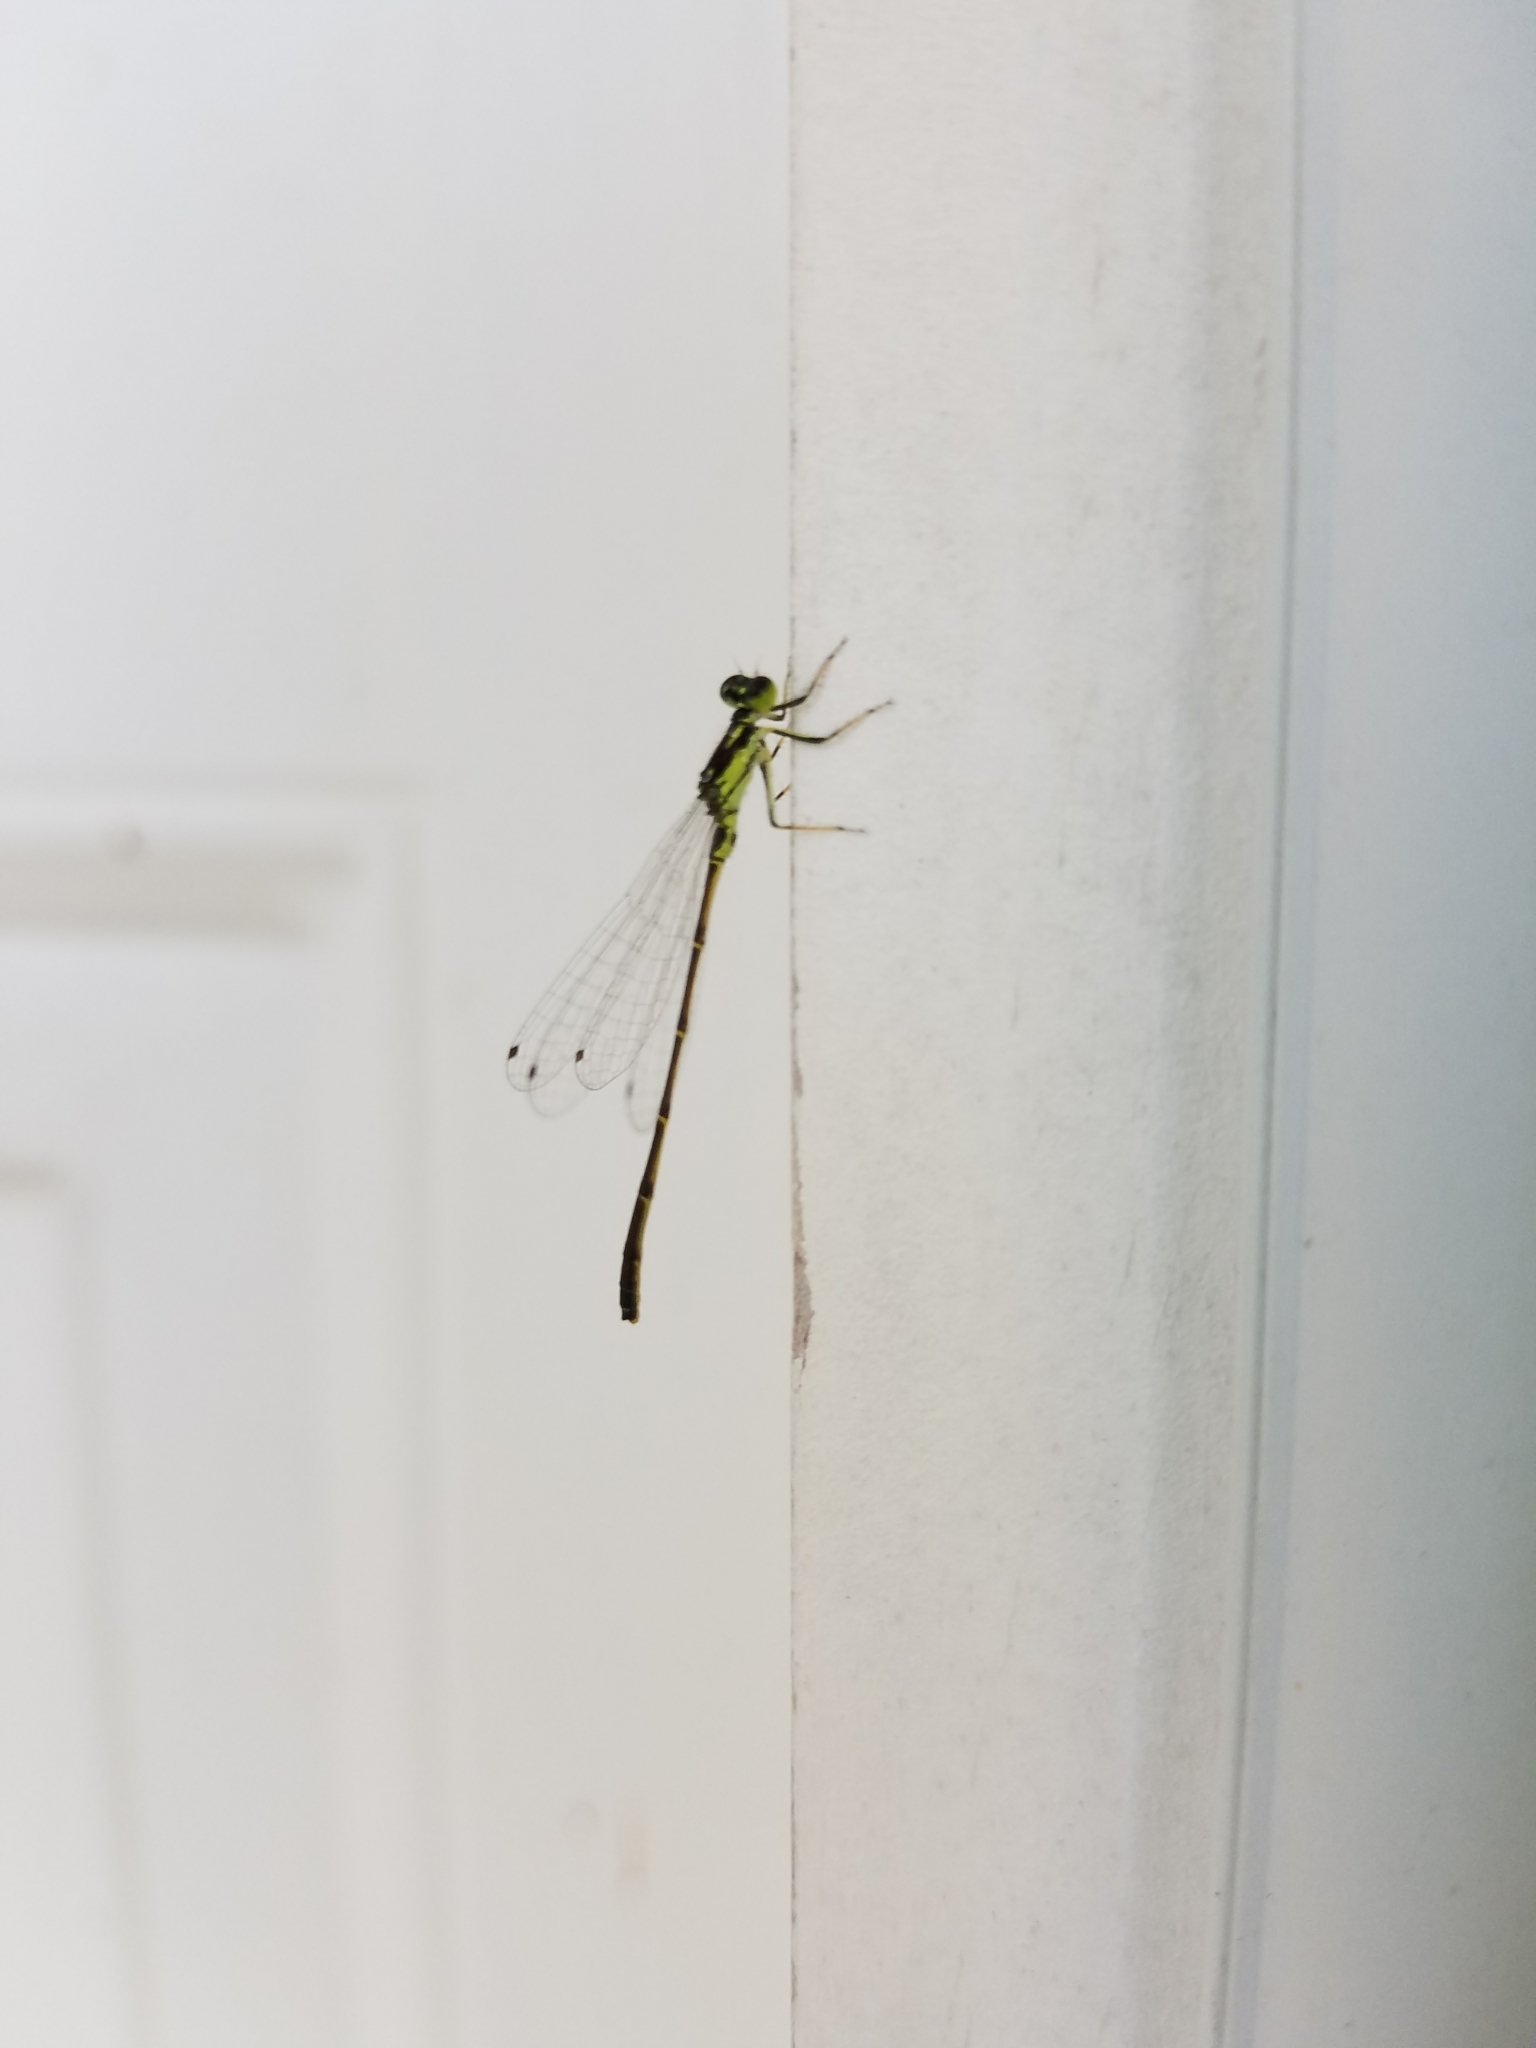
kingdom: Animalia
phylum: Arthropoda
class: Insecta
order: Odonata
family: Coenagrionidae
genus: Ischnura
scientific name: Ischnura posita
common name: Fragile forktail
